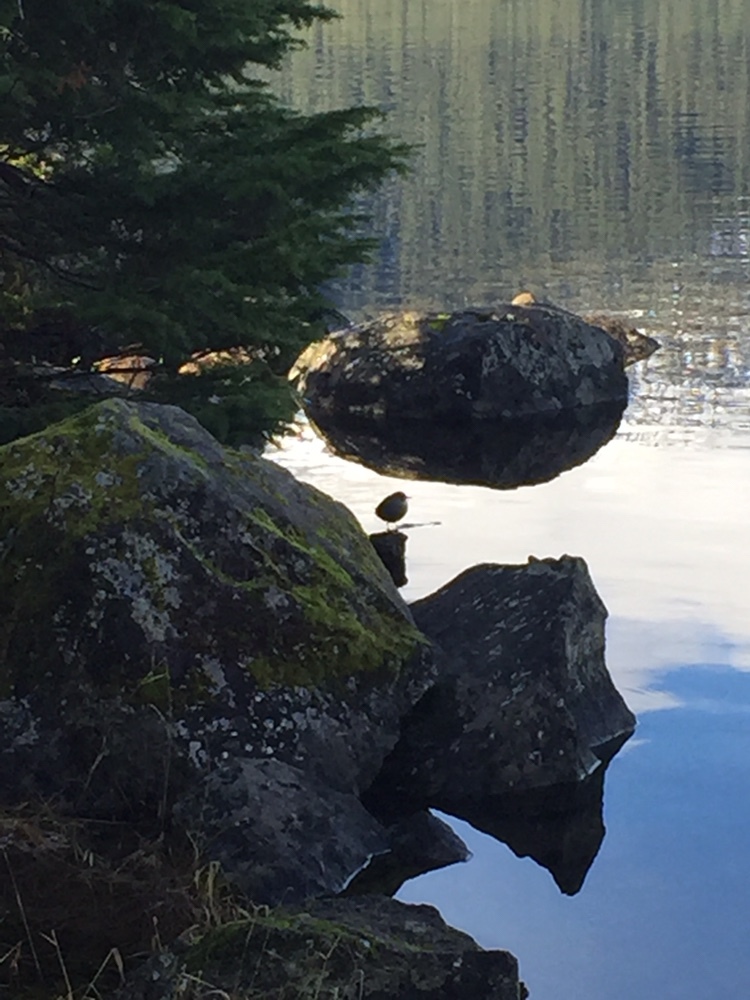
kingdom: Animalia
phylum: Chordata
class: Aves
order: Passeriformes
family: Cinclidae
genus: Cinclus
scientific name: Cinclus mexicanus
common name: American dipper
